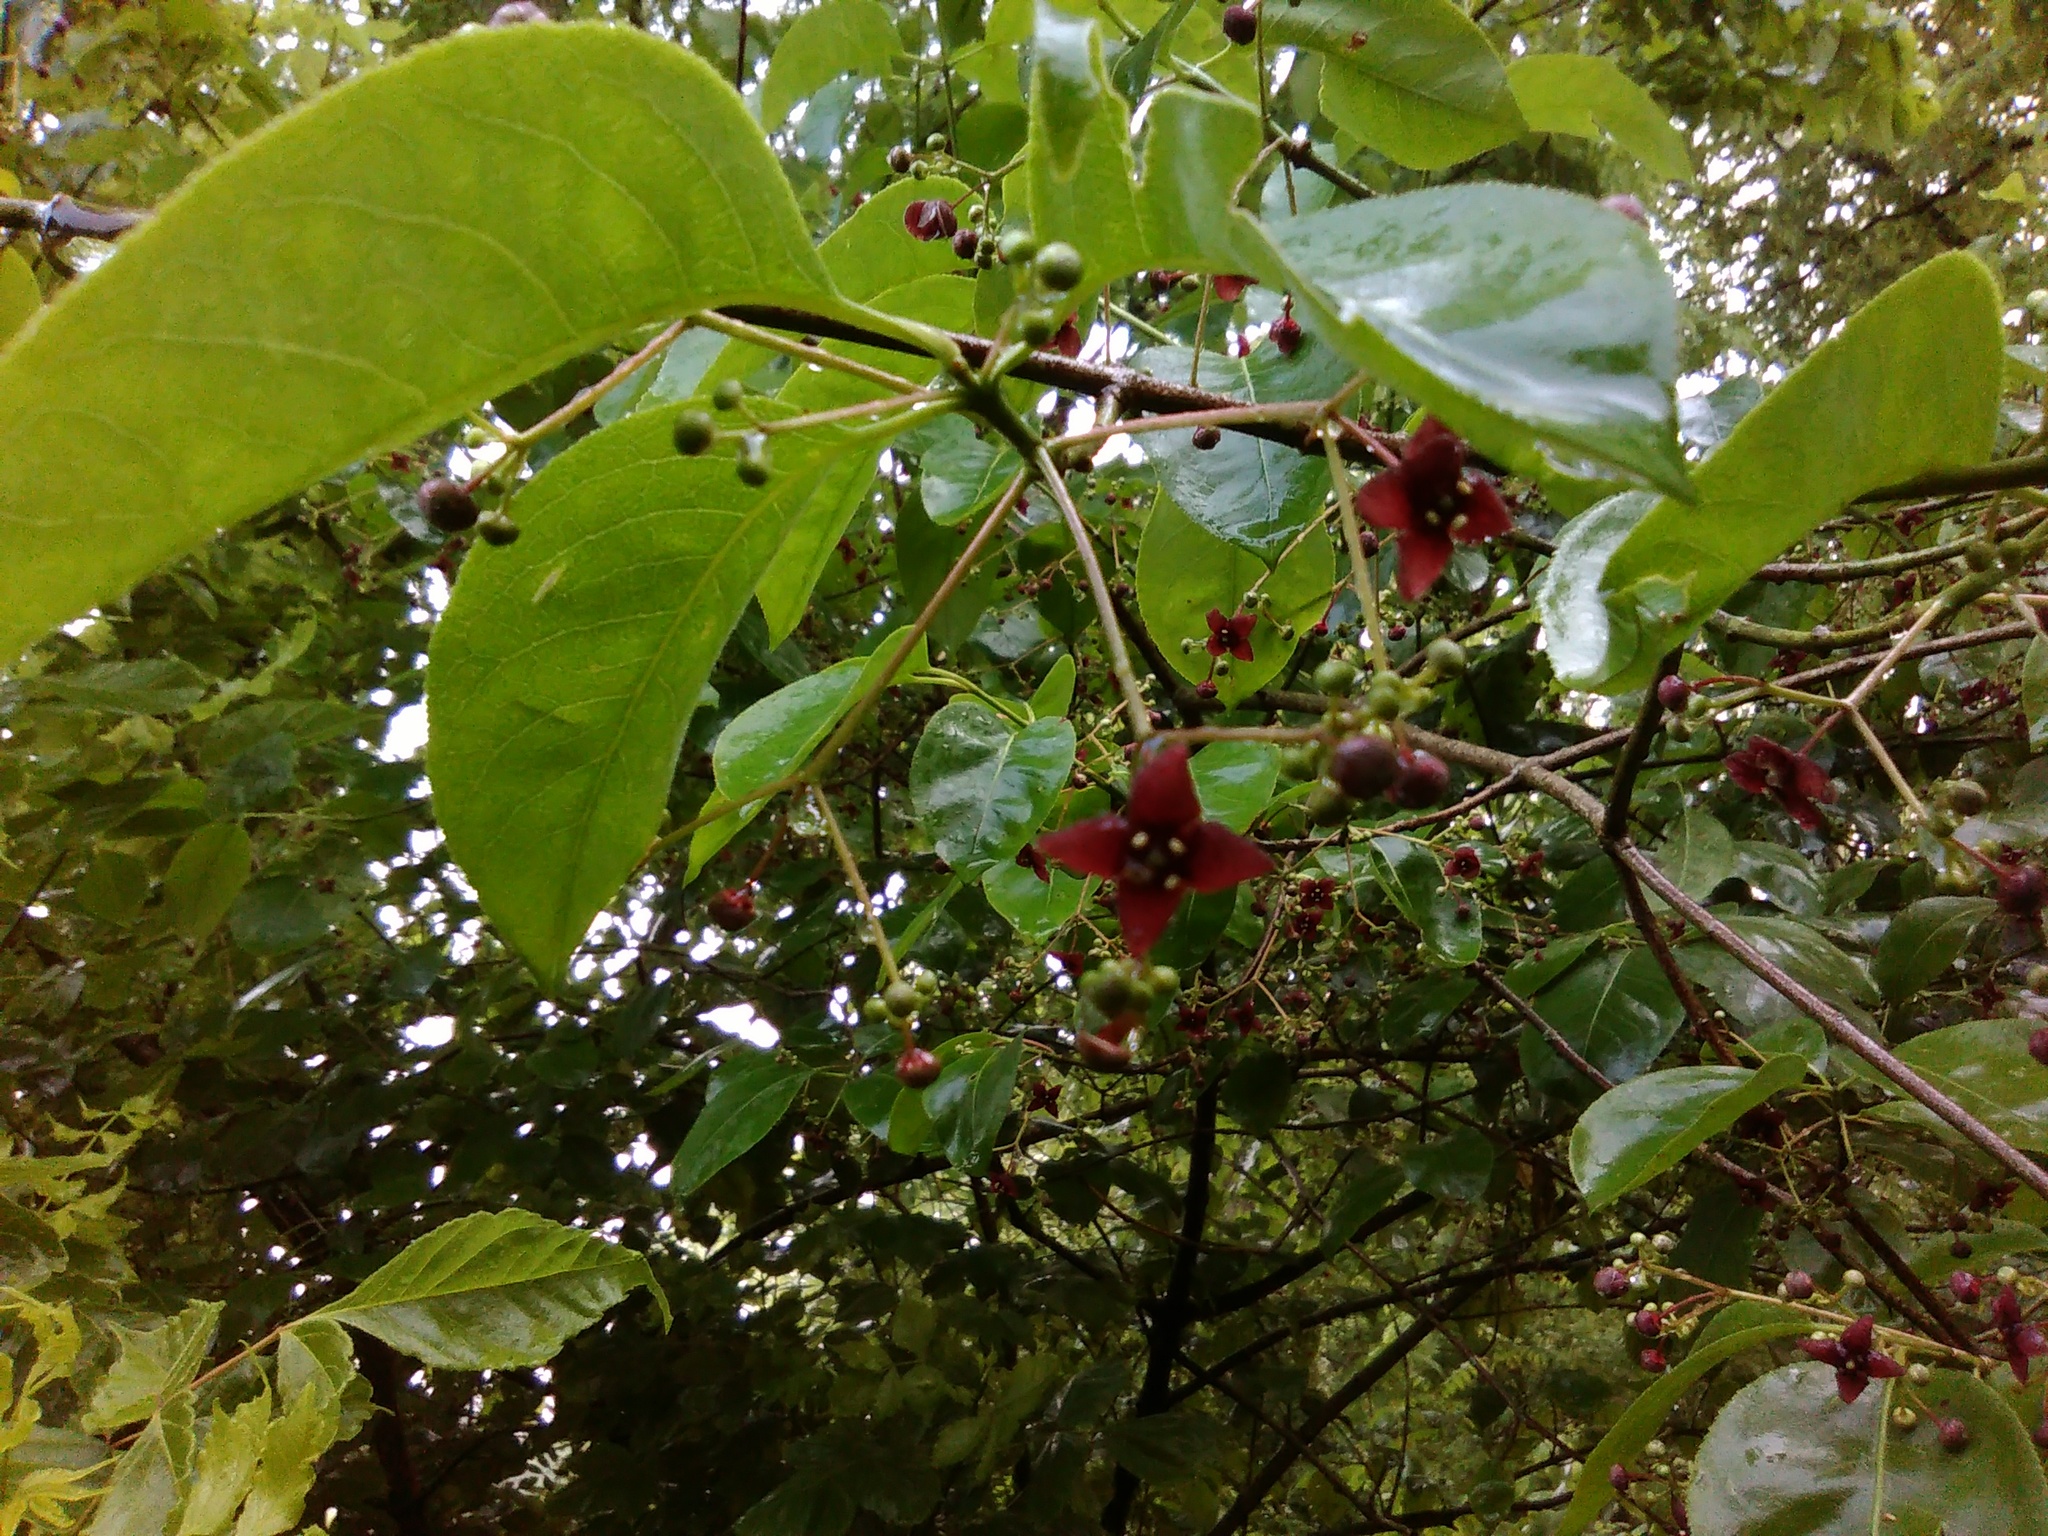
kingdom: Plantae
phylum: Tracheophyta
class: Magnoliopsida
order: Celastrales
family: Celastraceae
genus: Euonymus
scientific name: Euonymus atropurpureus
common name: Eastern wahoo
